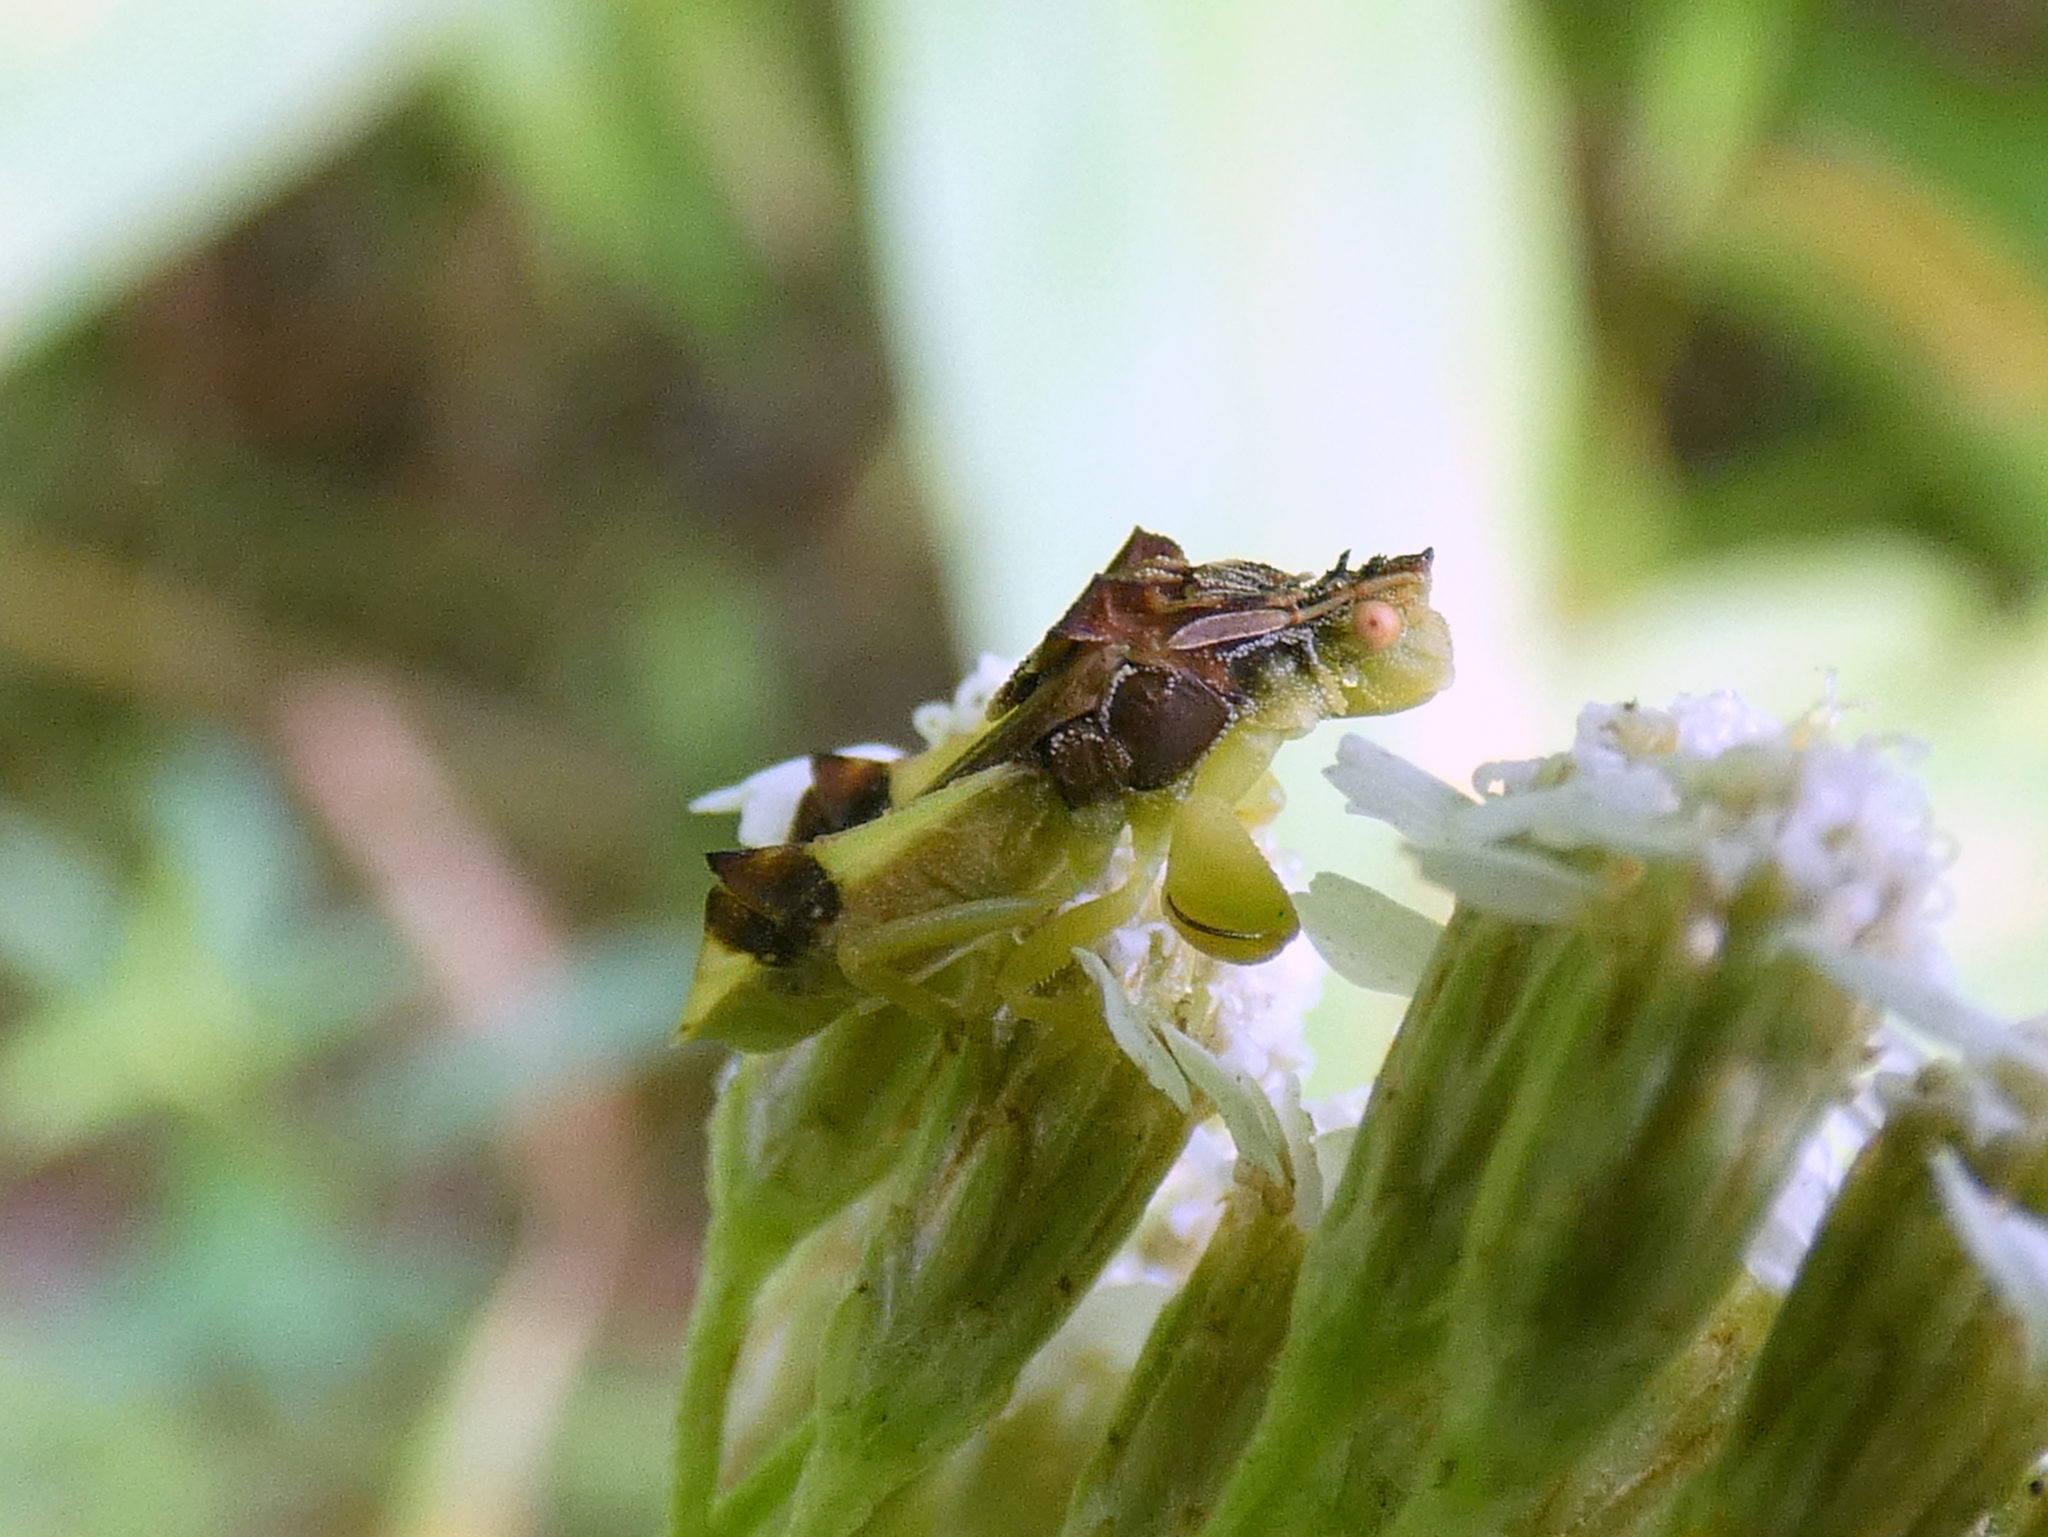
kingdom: Animalia
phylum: Arthropoda
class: Insecta
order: Hemiptera
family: Reduviidae
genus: Phymata
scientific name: Phymata pennsylvanica
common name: Pennsylvania ambush bug
